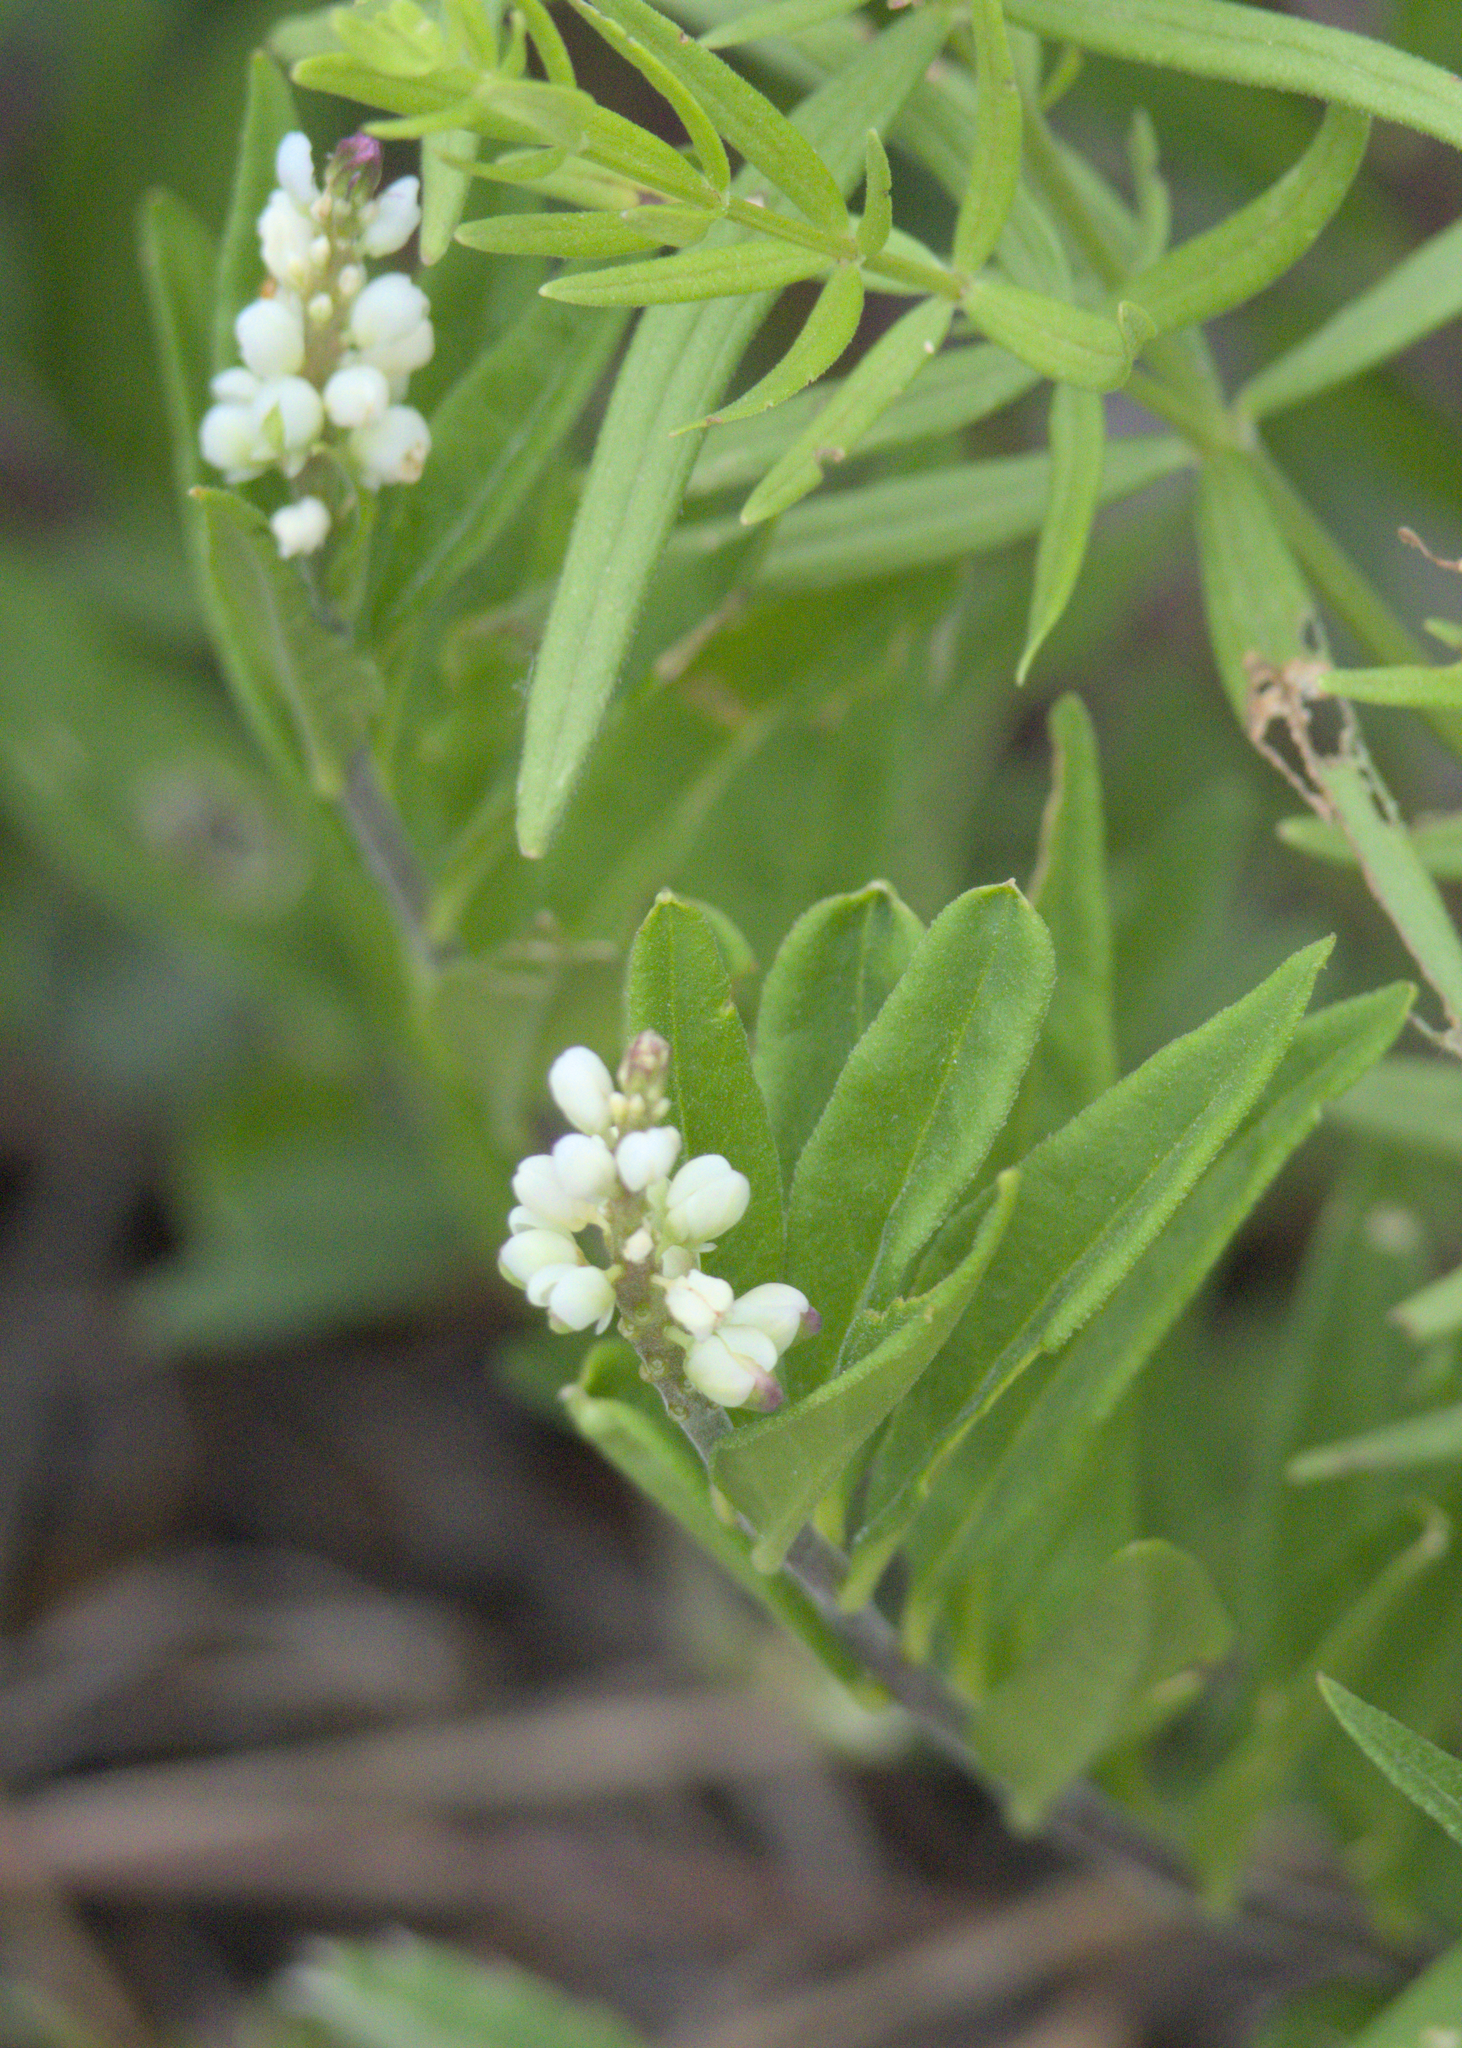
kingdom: Plantae
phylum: Tracheophyta
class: Magnoliopsida
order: Fabales
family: Polygalaceae
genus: Polygala
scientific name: Polygala senega
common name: Seneca snakeroot
